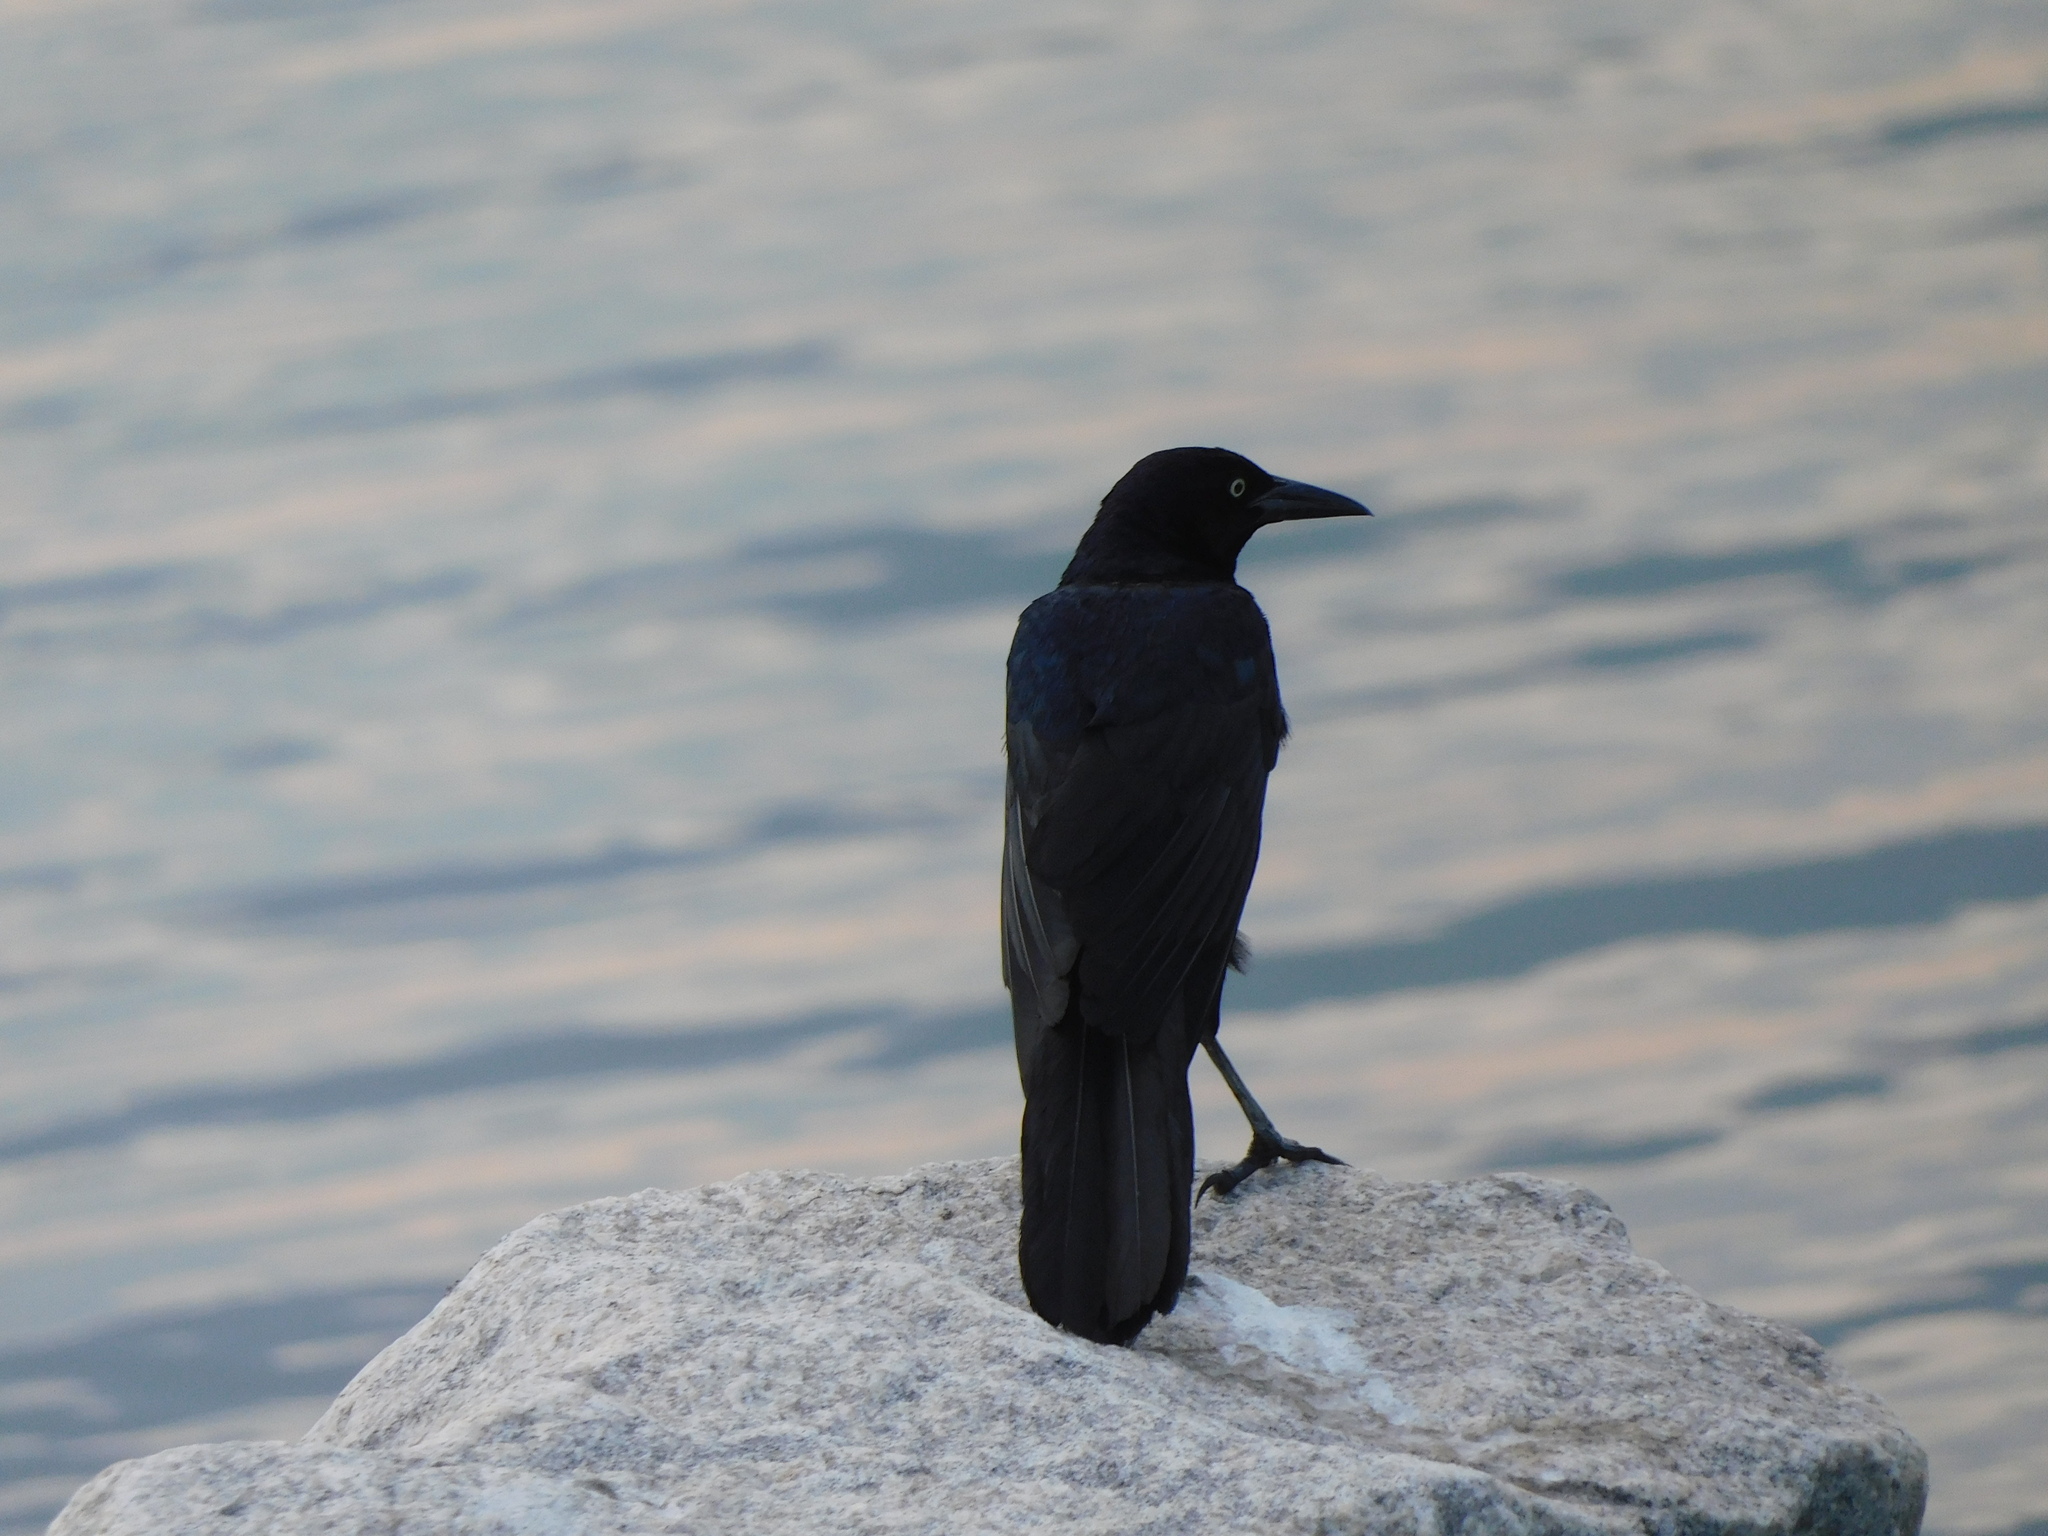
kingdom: Animalia
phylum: Chordata
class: Aves
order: Passeriformes
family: Icteridae
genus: Quiscalus
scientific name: Quiscalus major
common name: Boat-tailed grackle
